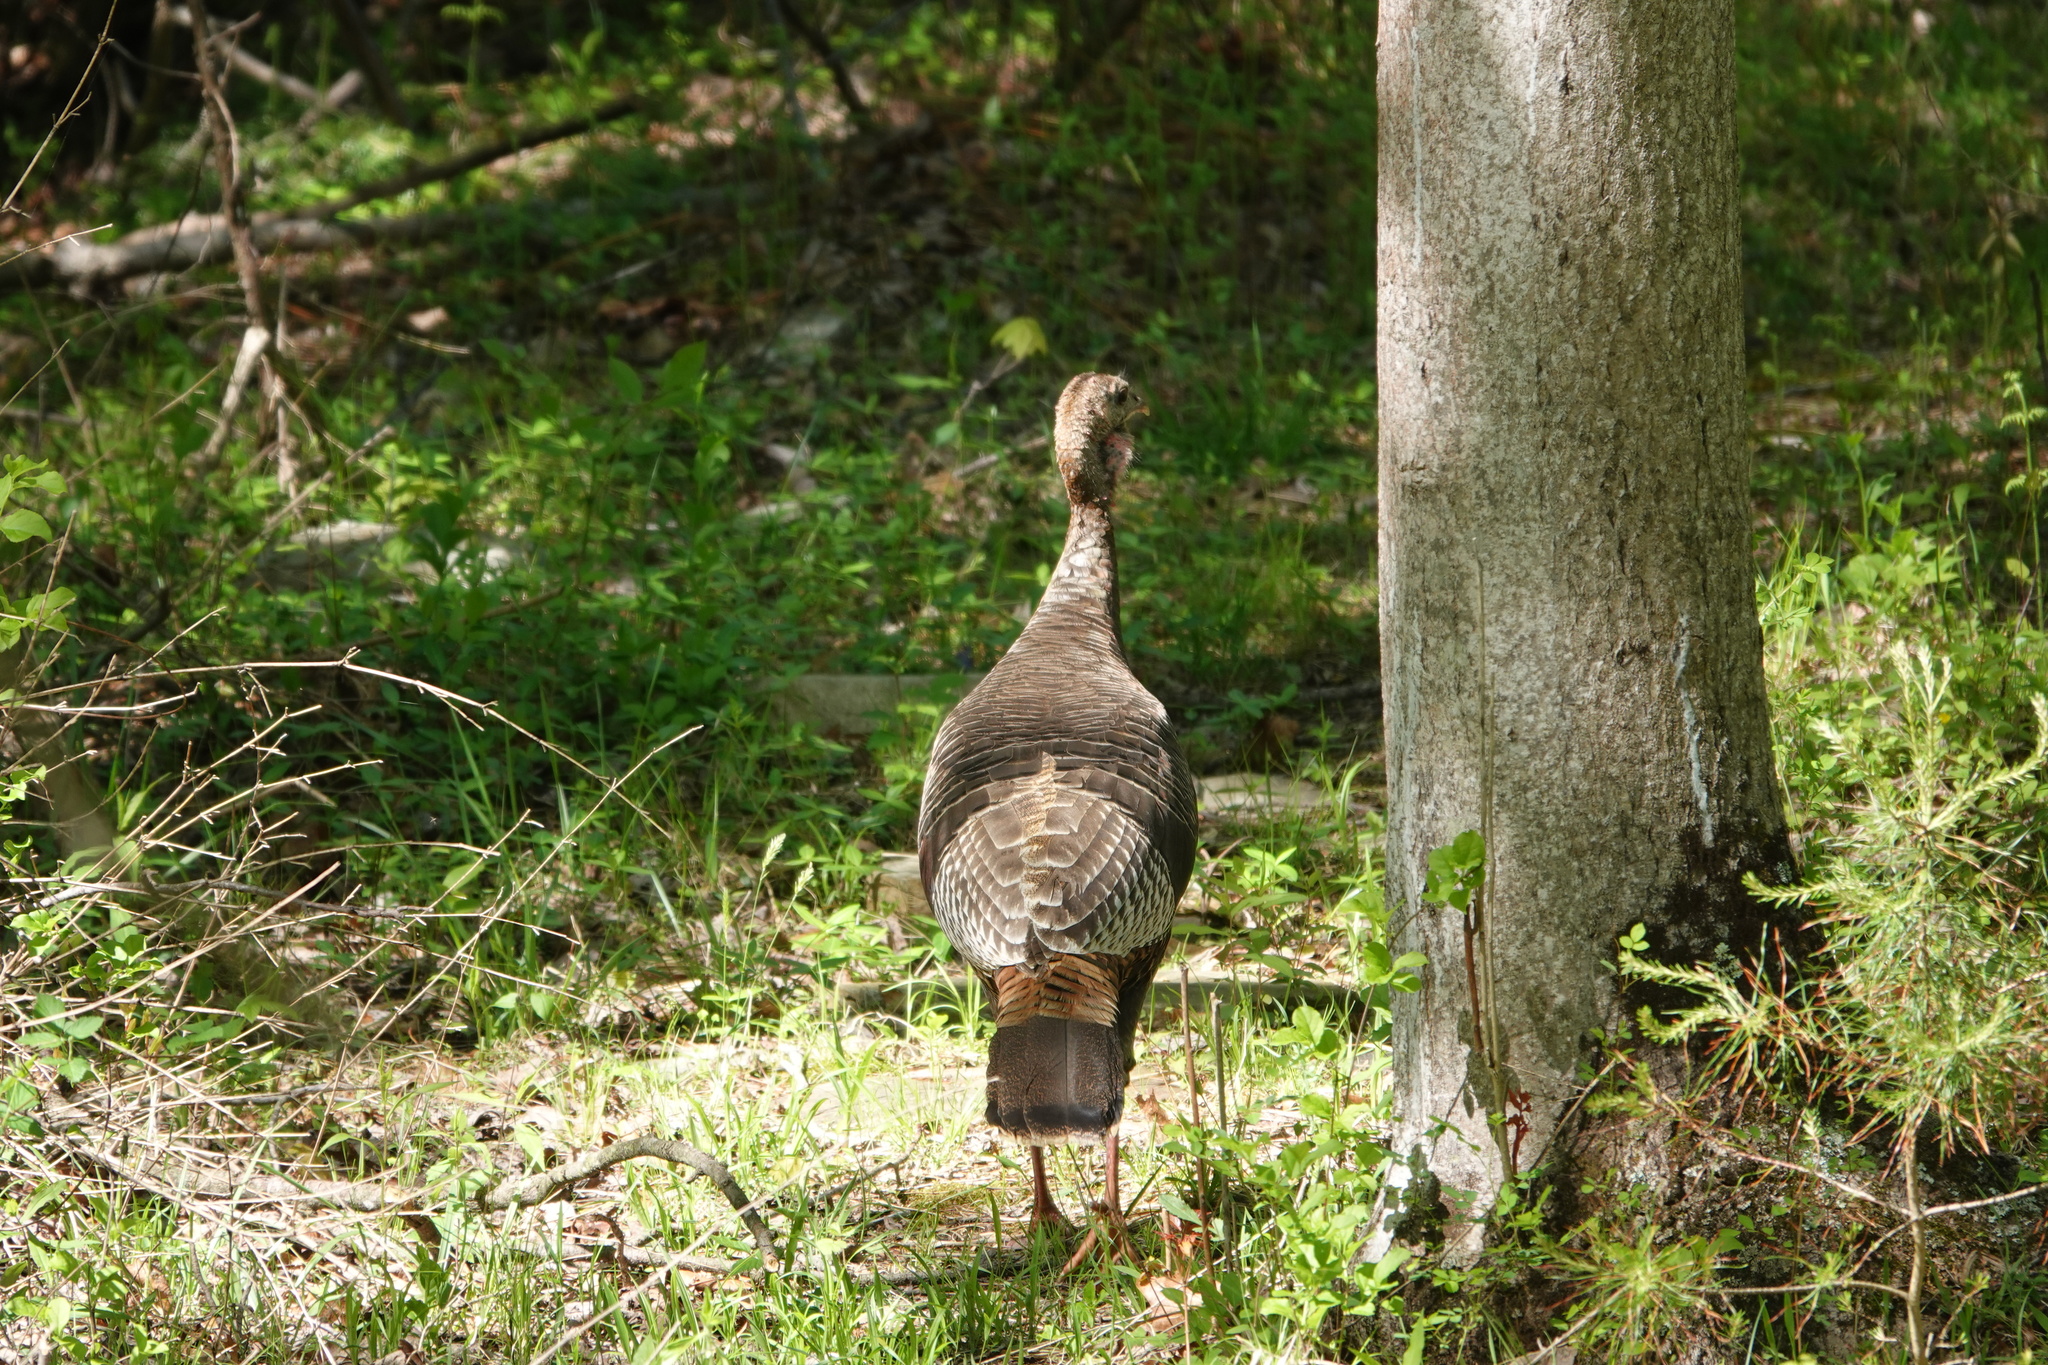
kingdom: Animalia
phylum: Chordata
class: Aves
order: Galliformes
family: Phasianidae
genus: Meleagris
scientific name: Meleagris gallopavo
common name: Wild turkey
